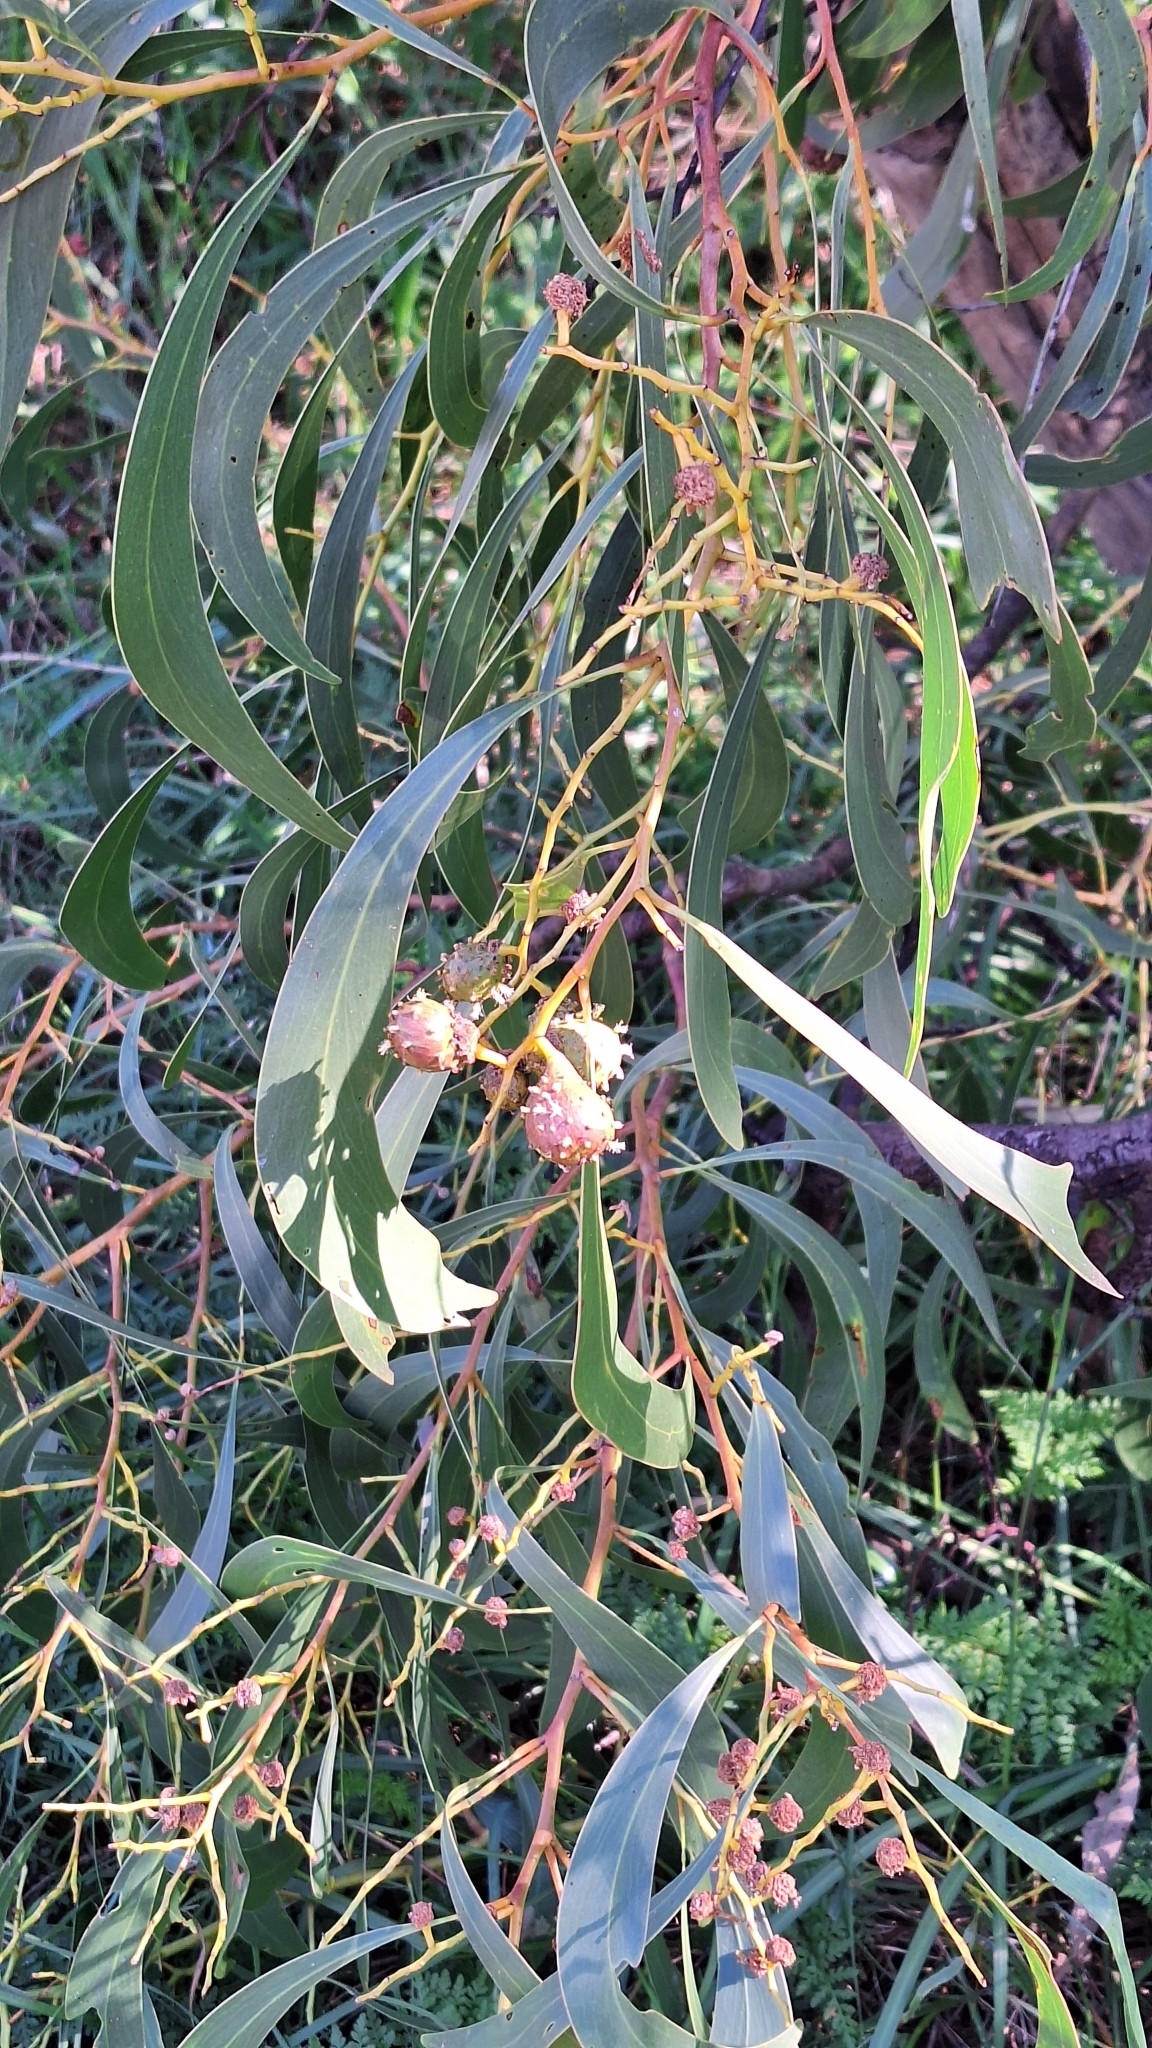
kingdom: Plantae
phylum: Tracheophyta
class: Magnoliopsida
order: Fabales
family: Fabaceae
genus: Acacia
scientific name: Acacia pycnantha
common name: Golden wattle
